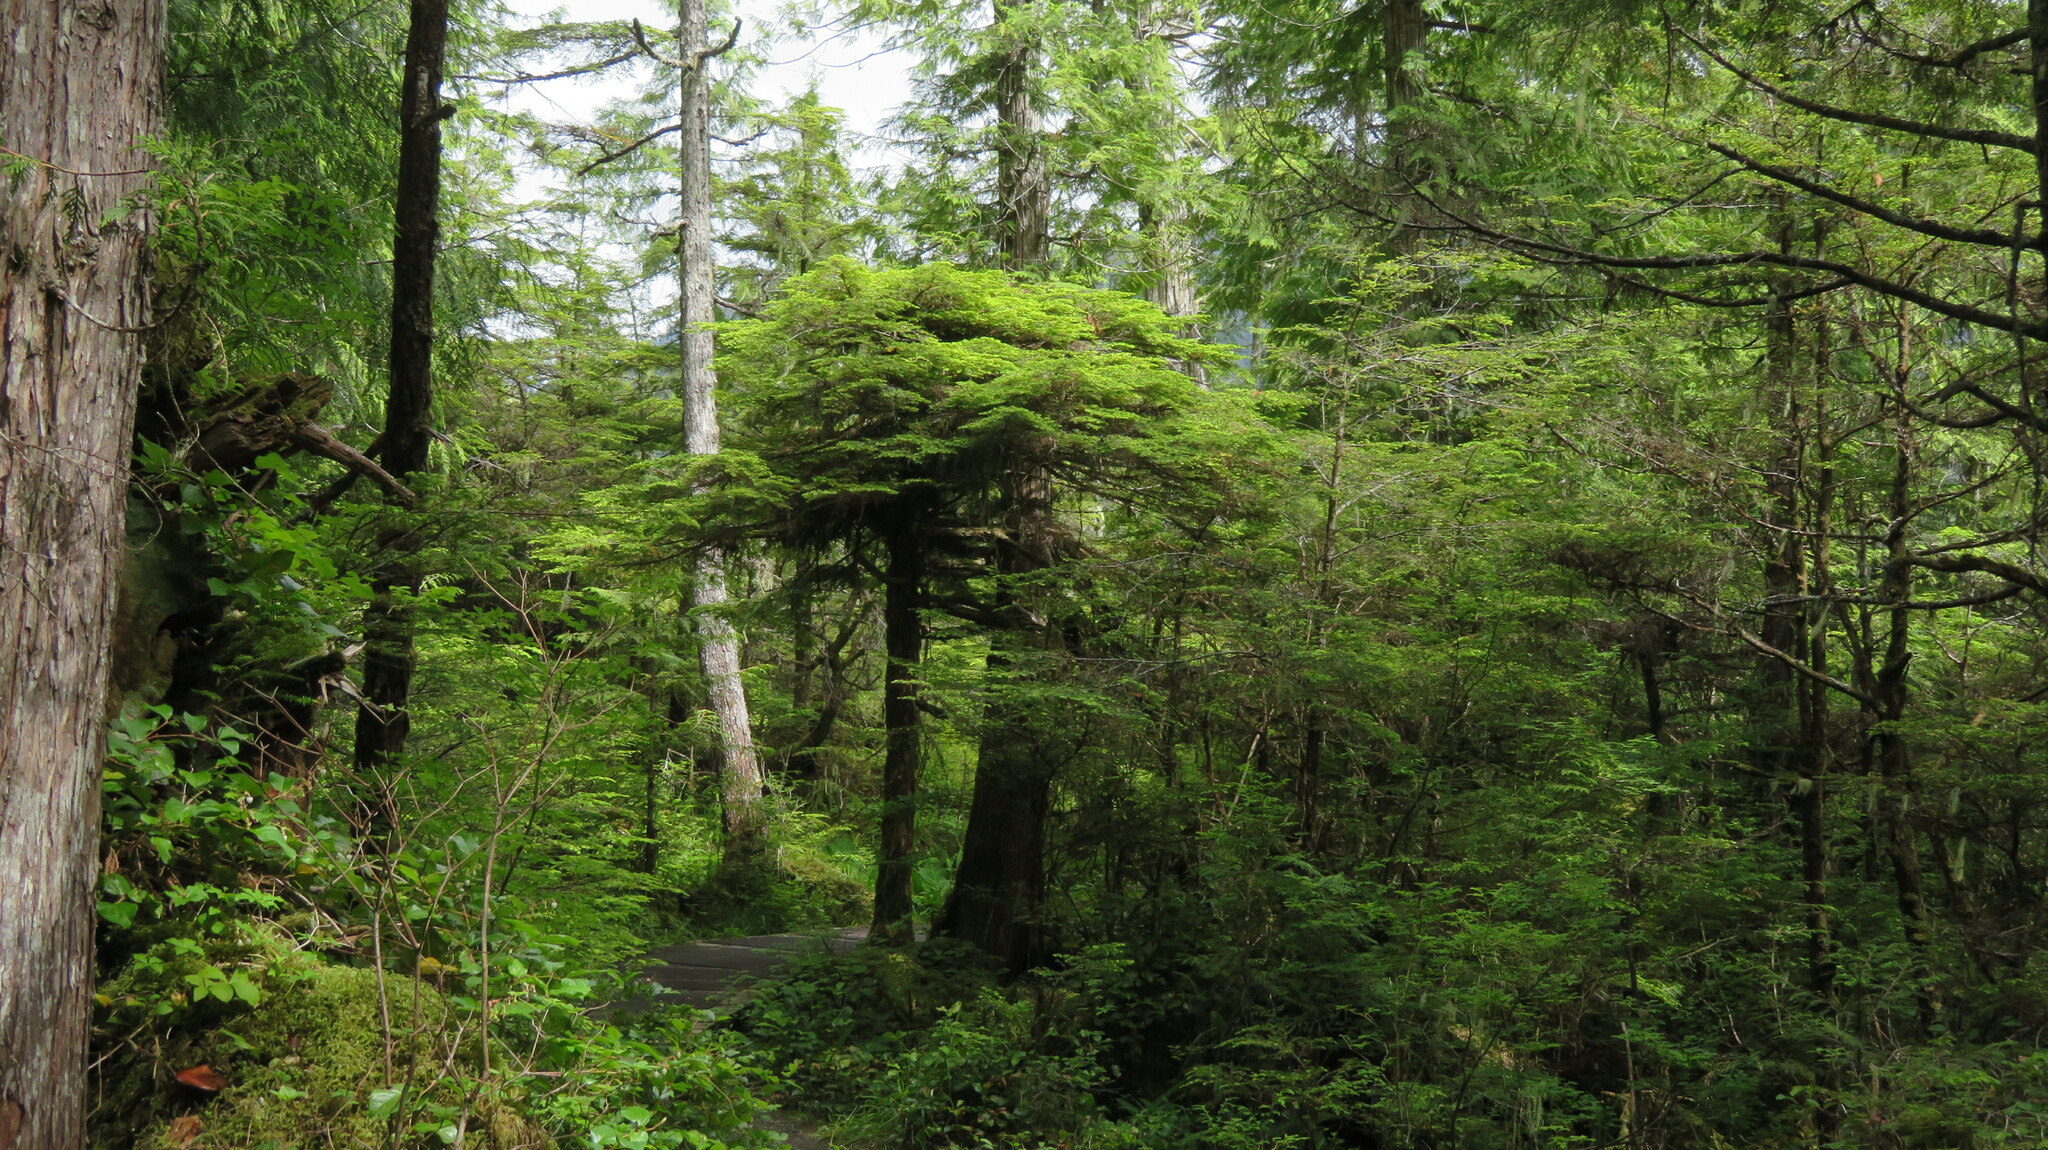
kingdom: Plantae
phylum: Tracheophyta
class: Polypodiopsida
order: Polypodiales
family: Polypodiaceae
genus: Polypodium
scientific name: Polypodium glycyrrhiza
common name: Licorice fern
